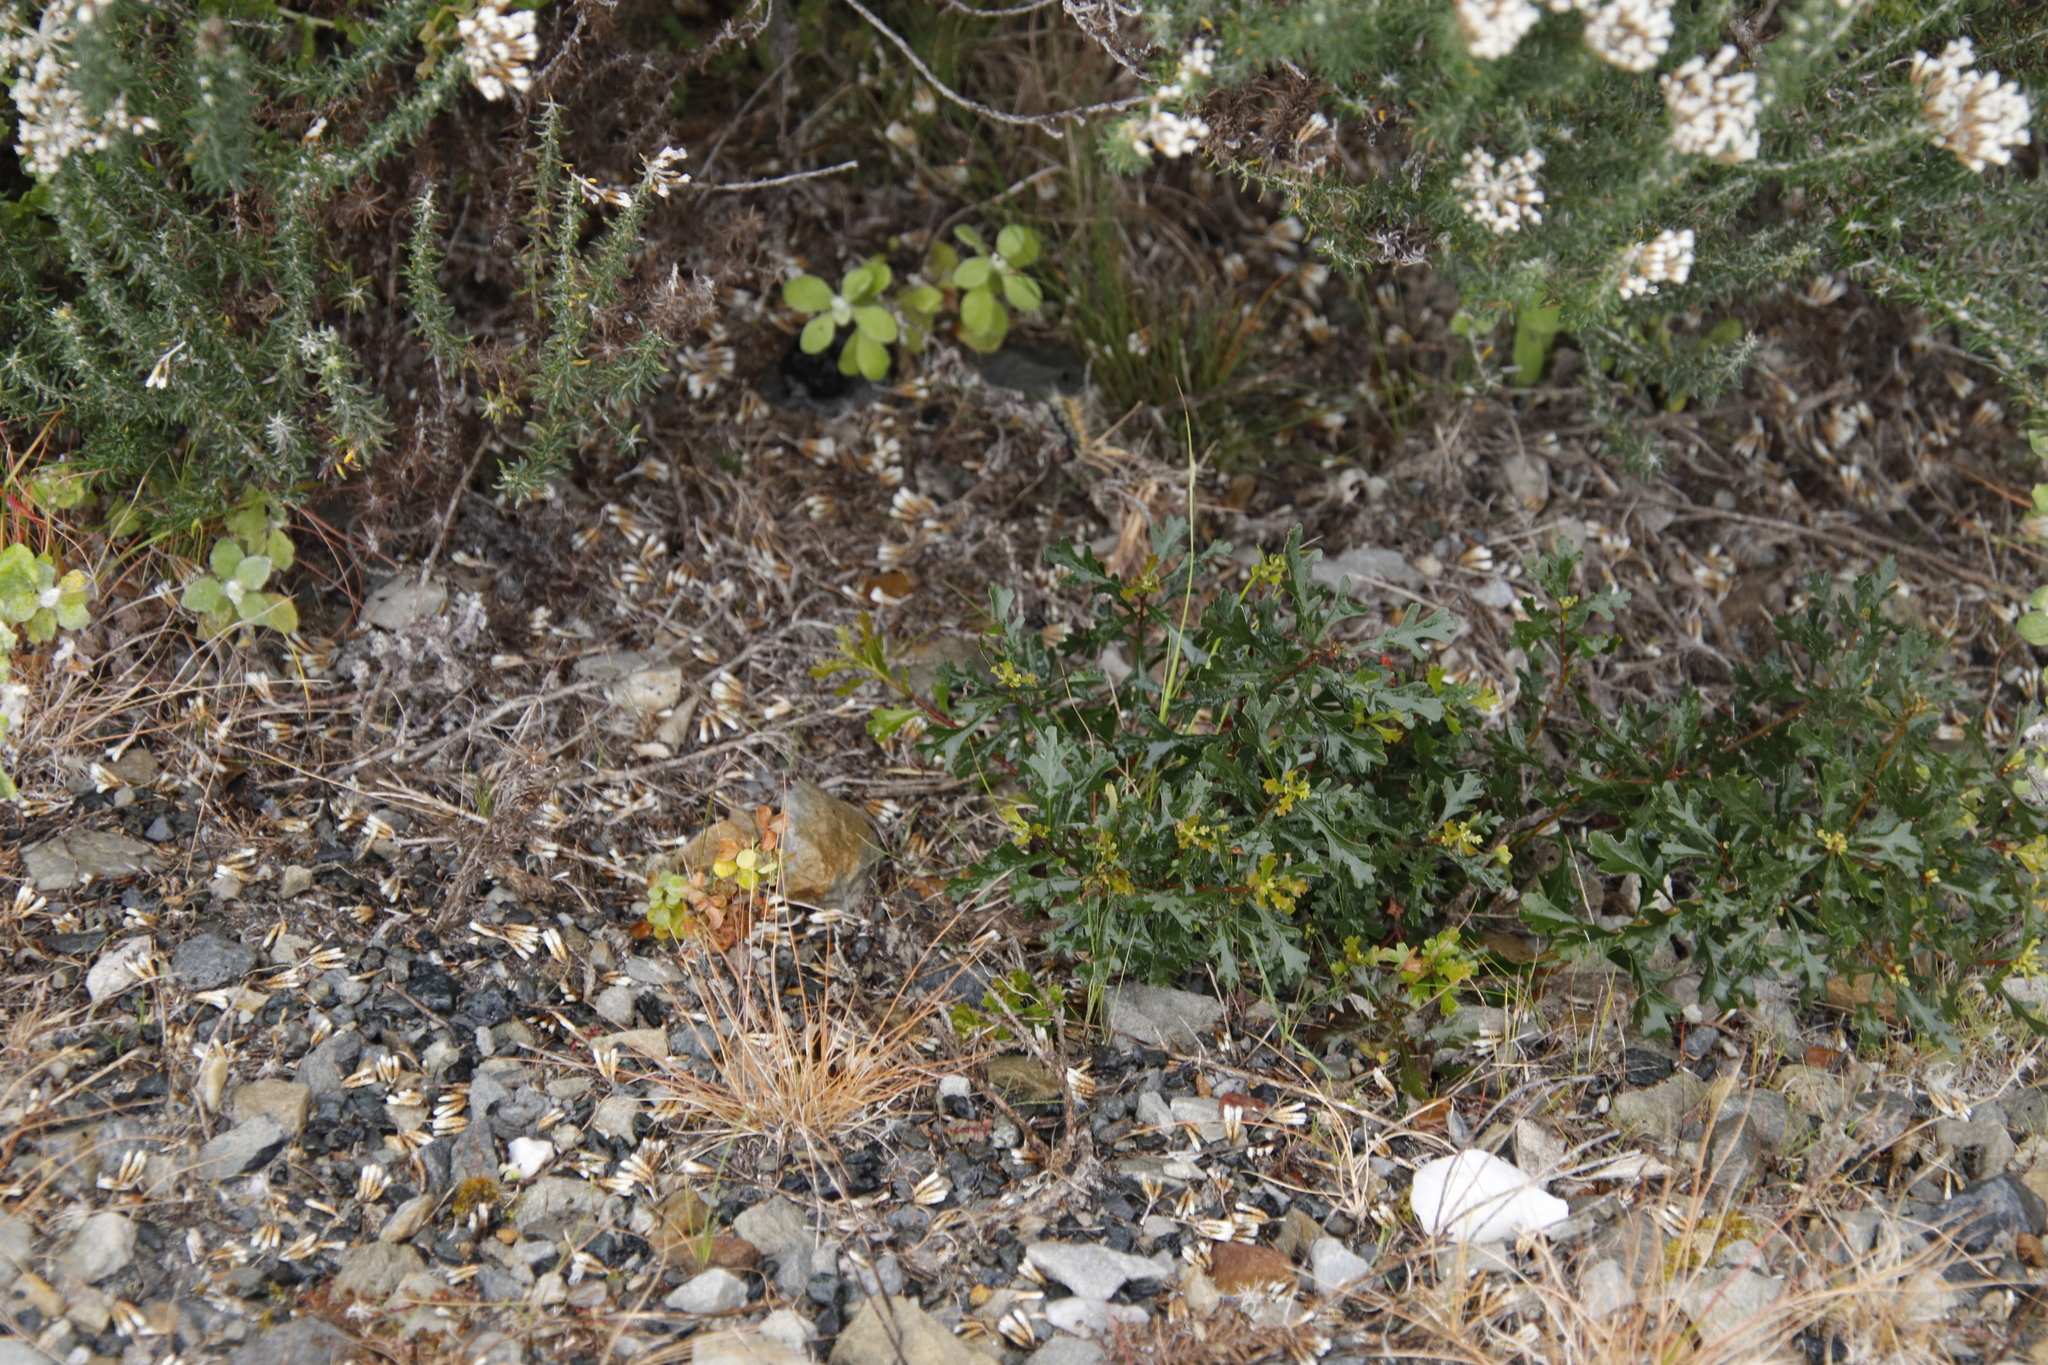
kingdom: Plantae
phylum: Tracheophyta
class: Magnoliopsida
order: Fagales
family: Myricaceae
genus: Morella
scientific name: Morella quercifolia
